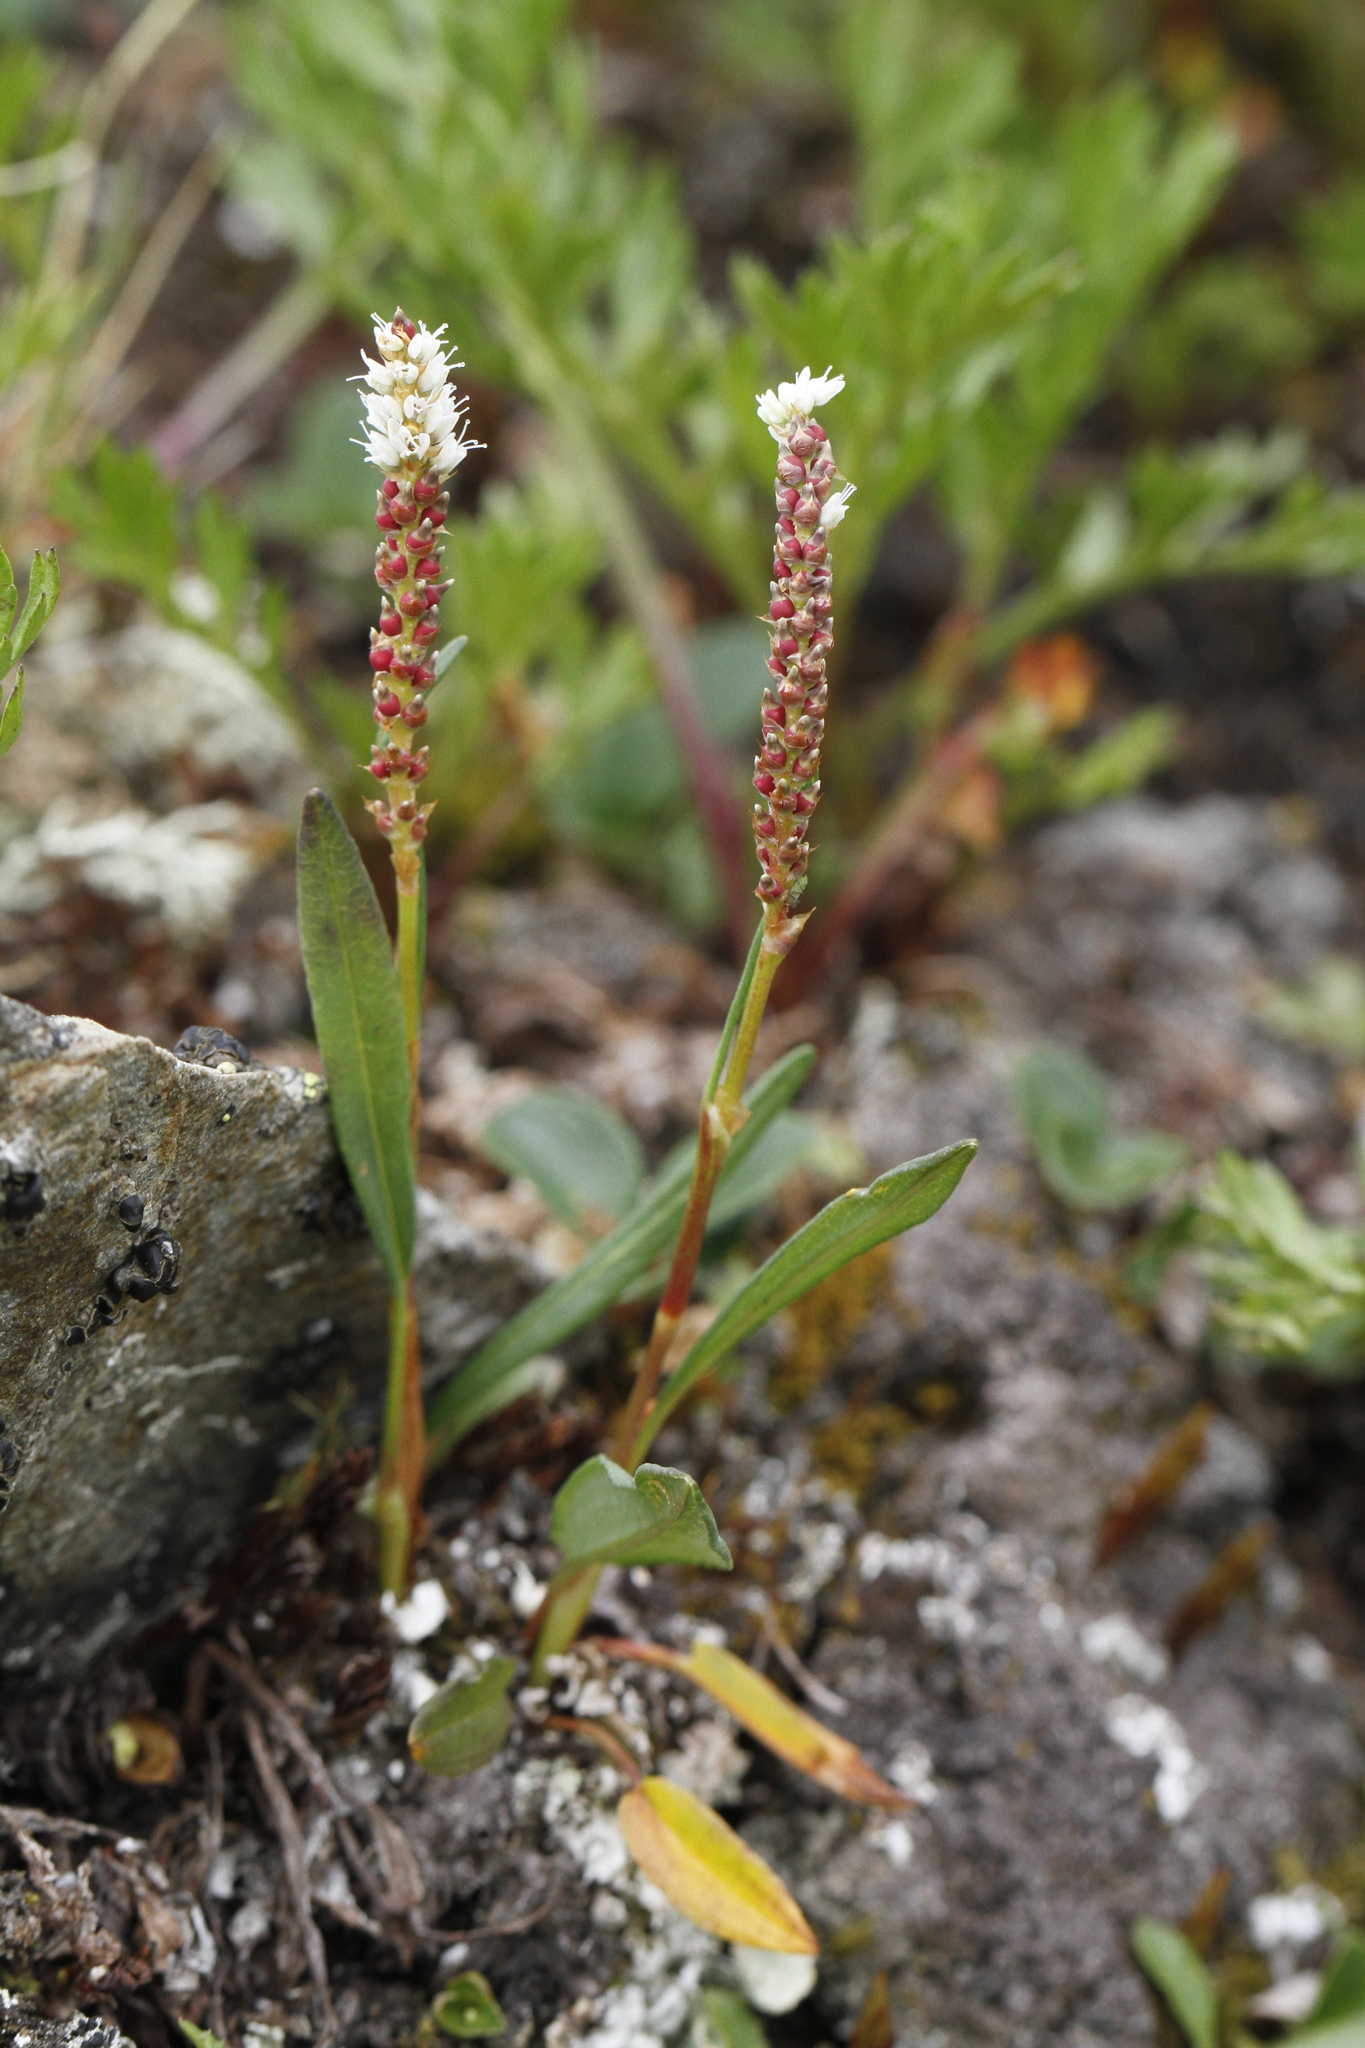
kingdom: Plantae
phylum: Tracheophyta
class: Magnoliopsida
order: Caryophyllales
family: Polygonaceae
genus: Bistorta
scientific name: Bistorta vivipara
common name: Alpine bistort
